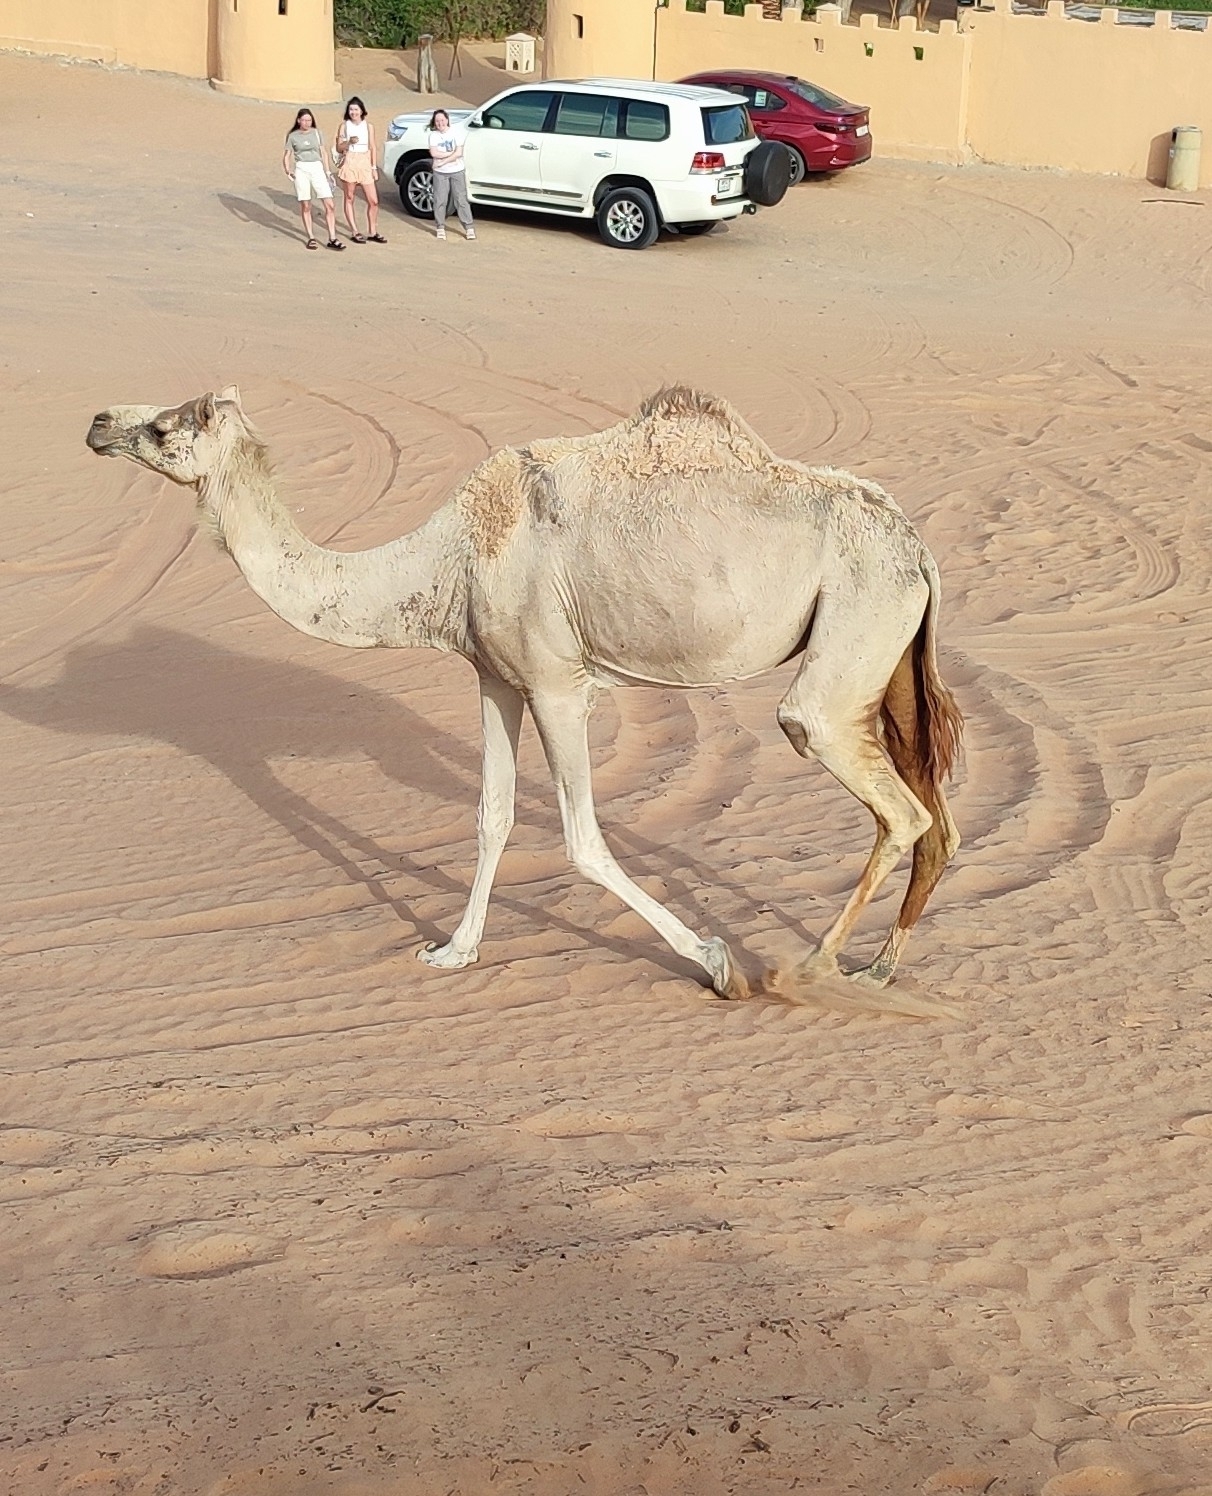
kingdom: Animalia
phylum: Chordata
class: Mammalia
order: Artiodactyla
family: Camelidae
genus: Camelus
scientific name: Camelus dromedarius
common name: One-humped camel
